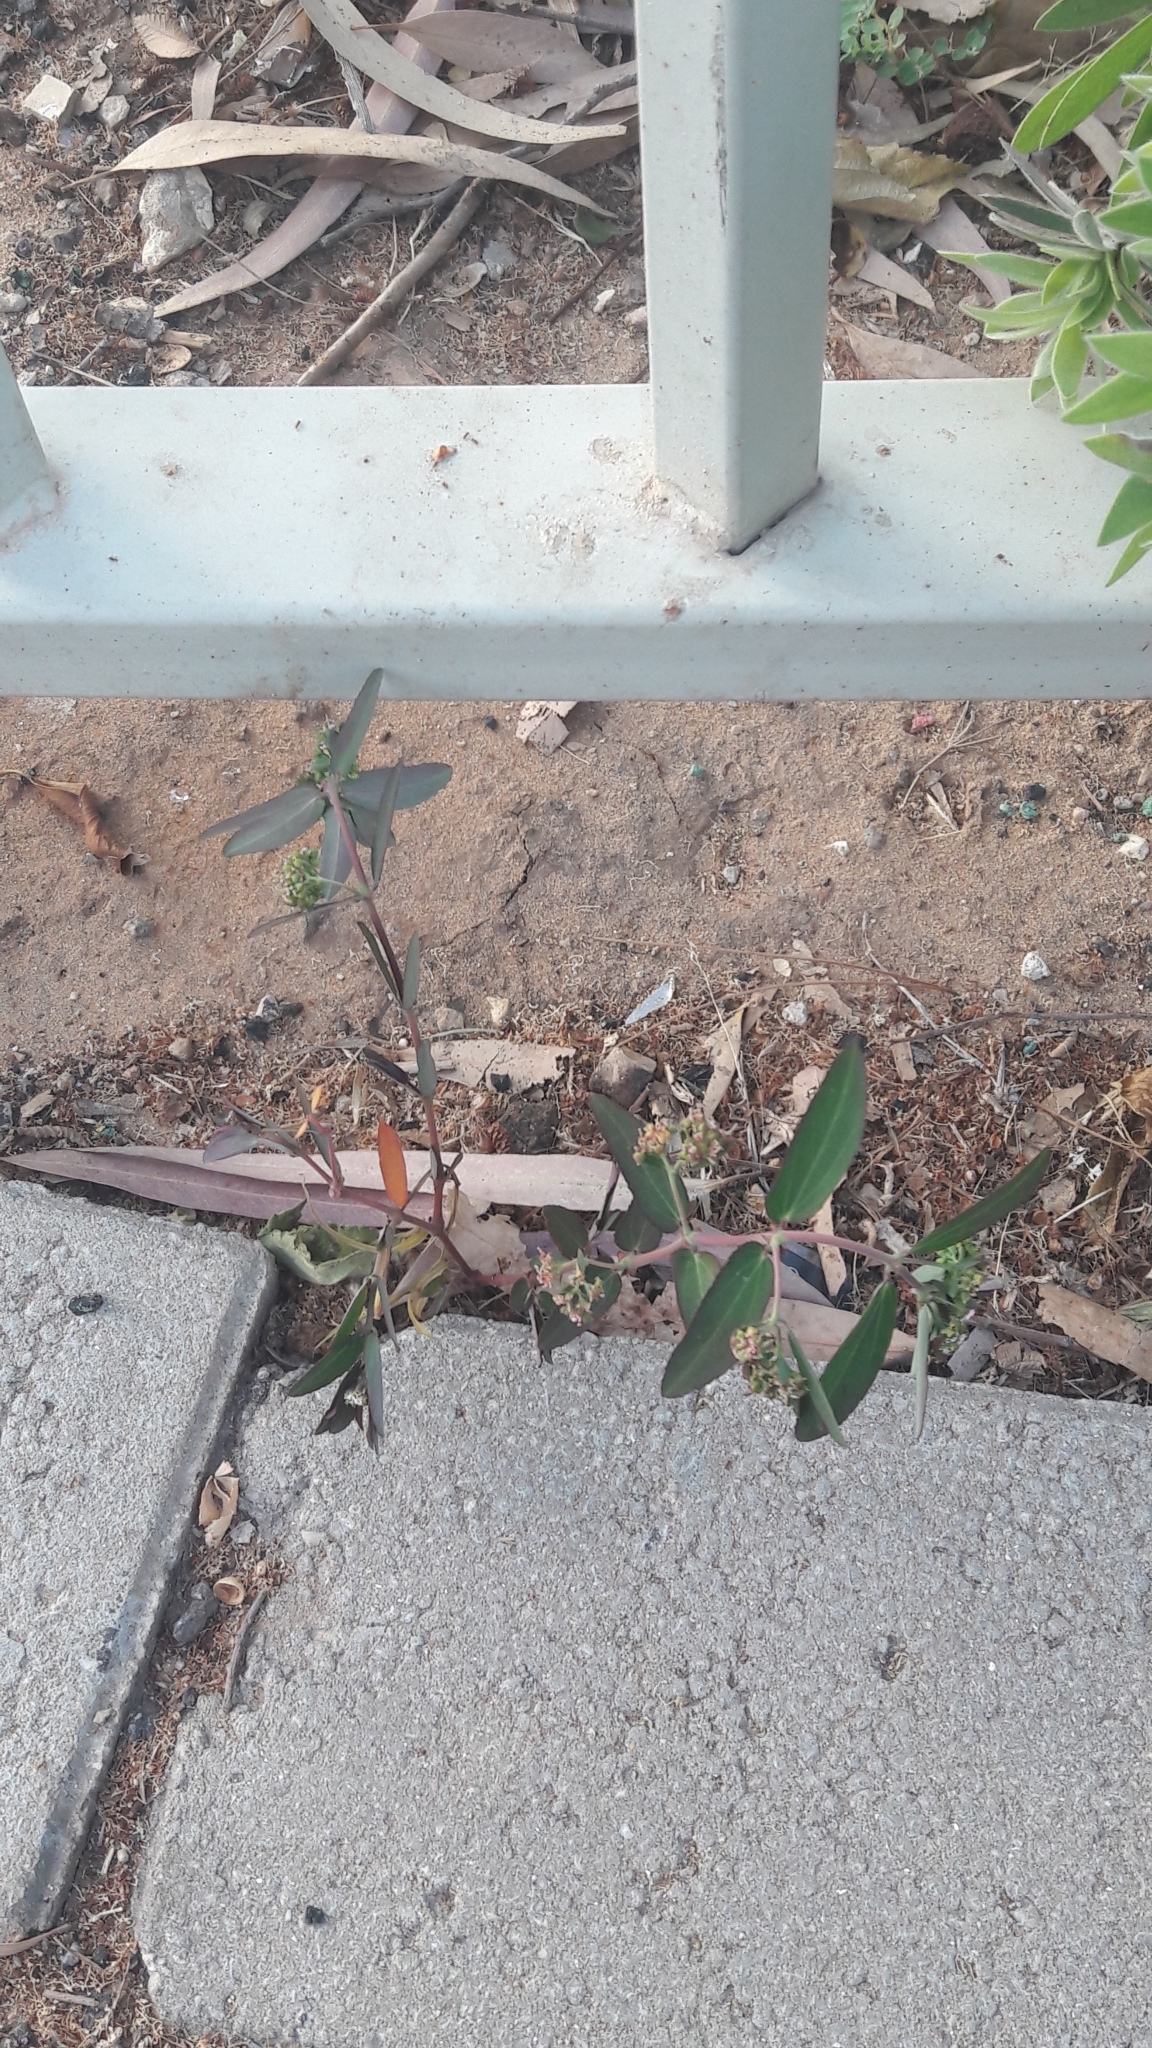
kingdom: Plantae
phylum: Tracheophyta
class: Magnoliopsida
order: Malpighiales
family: Euphorbiaceae
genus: Euphorbia
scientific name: Euphorbia hypericifolia
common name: Graceful sandmat
